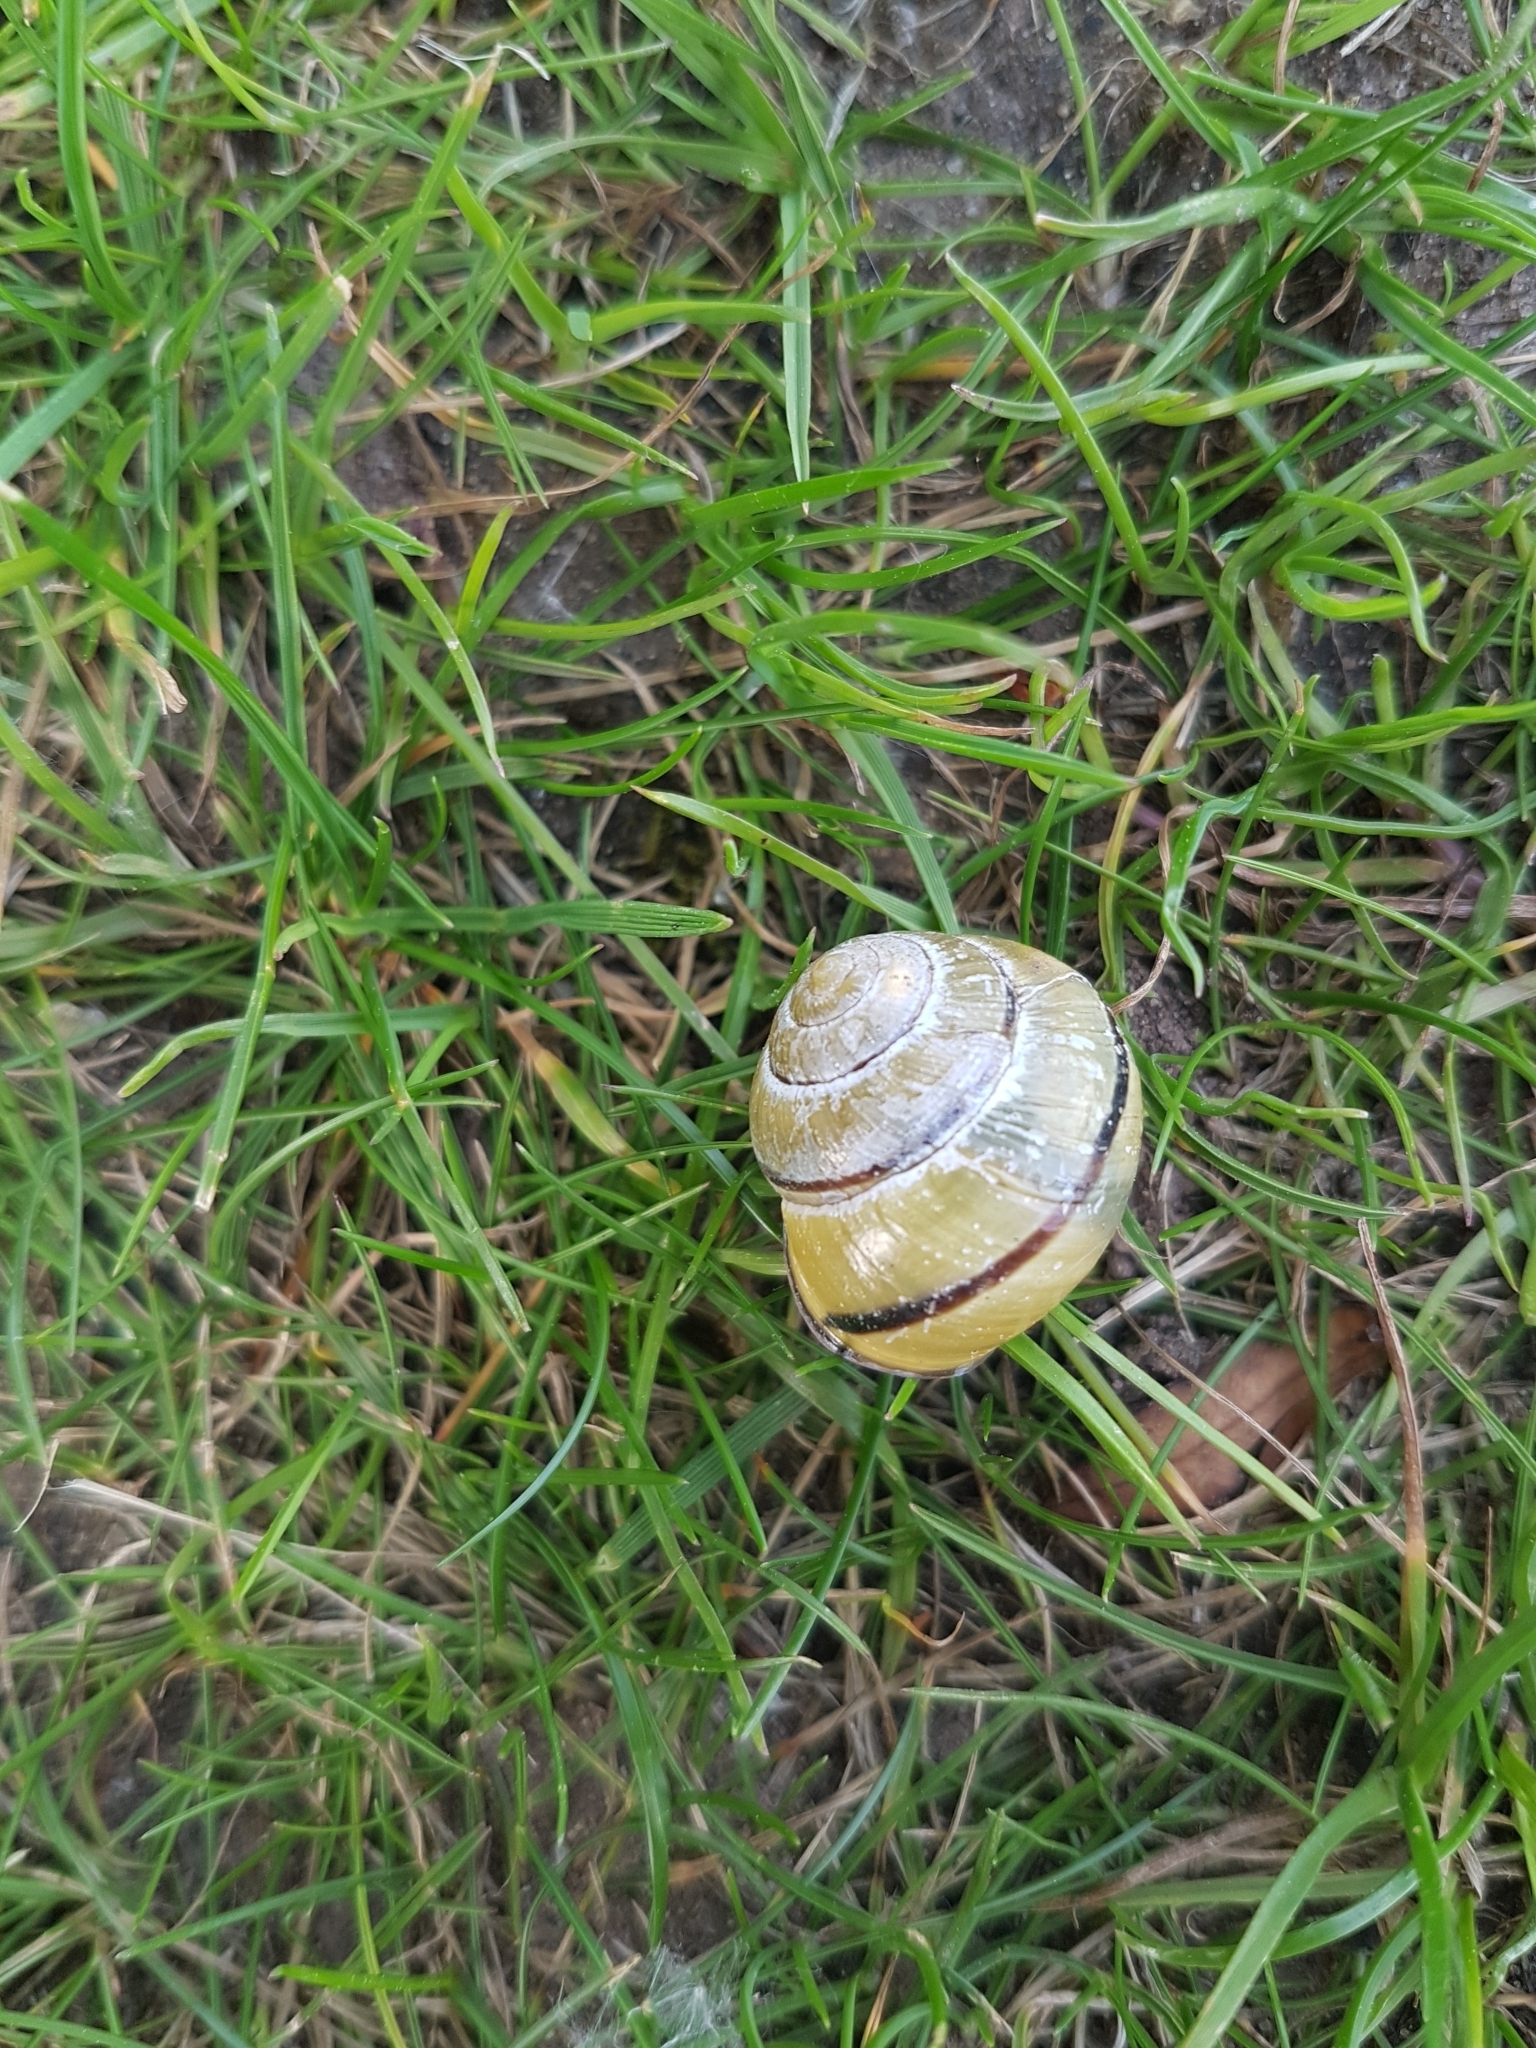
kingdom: Animalia
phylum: Mollusca
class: Gastropoda
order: Stylommatophora
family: Helicidae
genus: Cepaea
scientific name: Cepaea nemoralis
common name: Grovesnail
